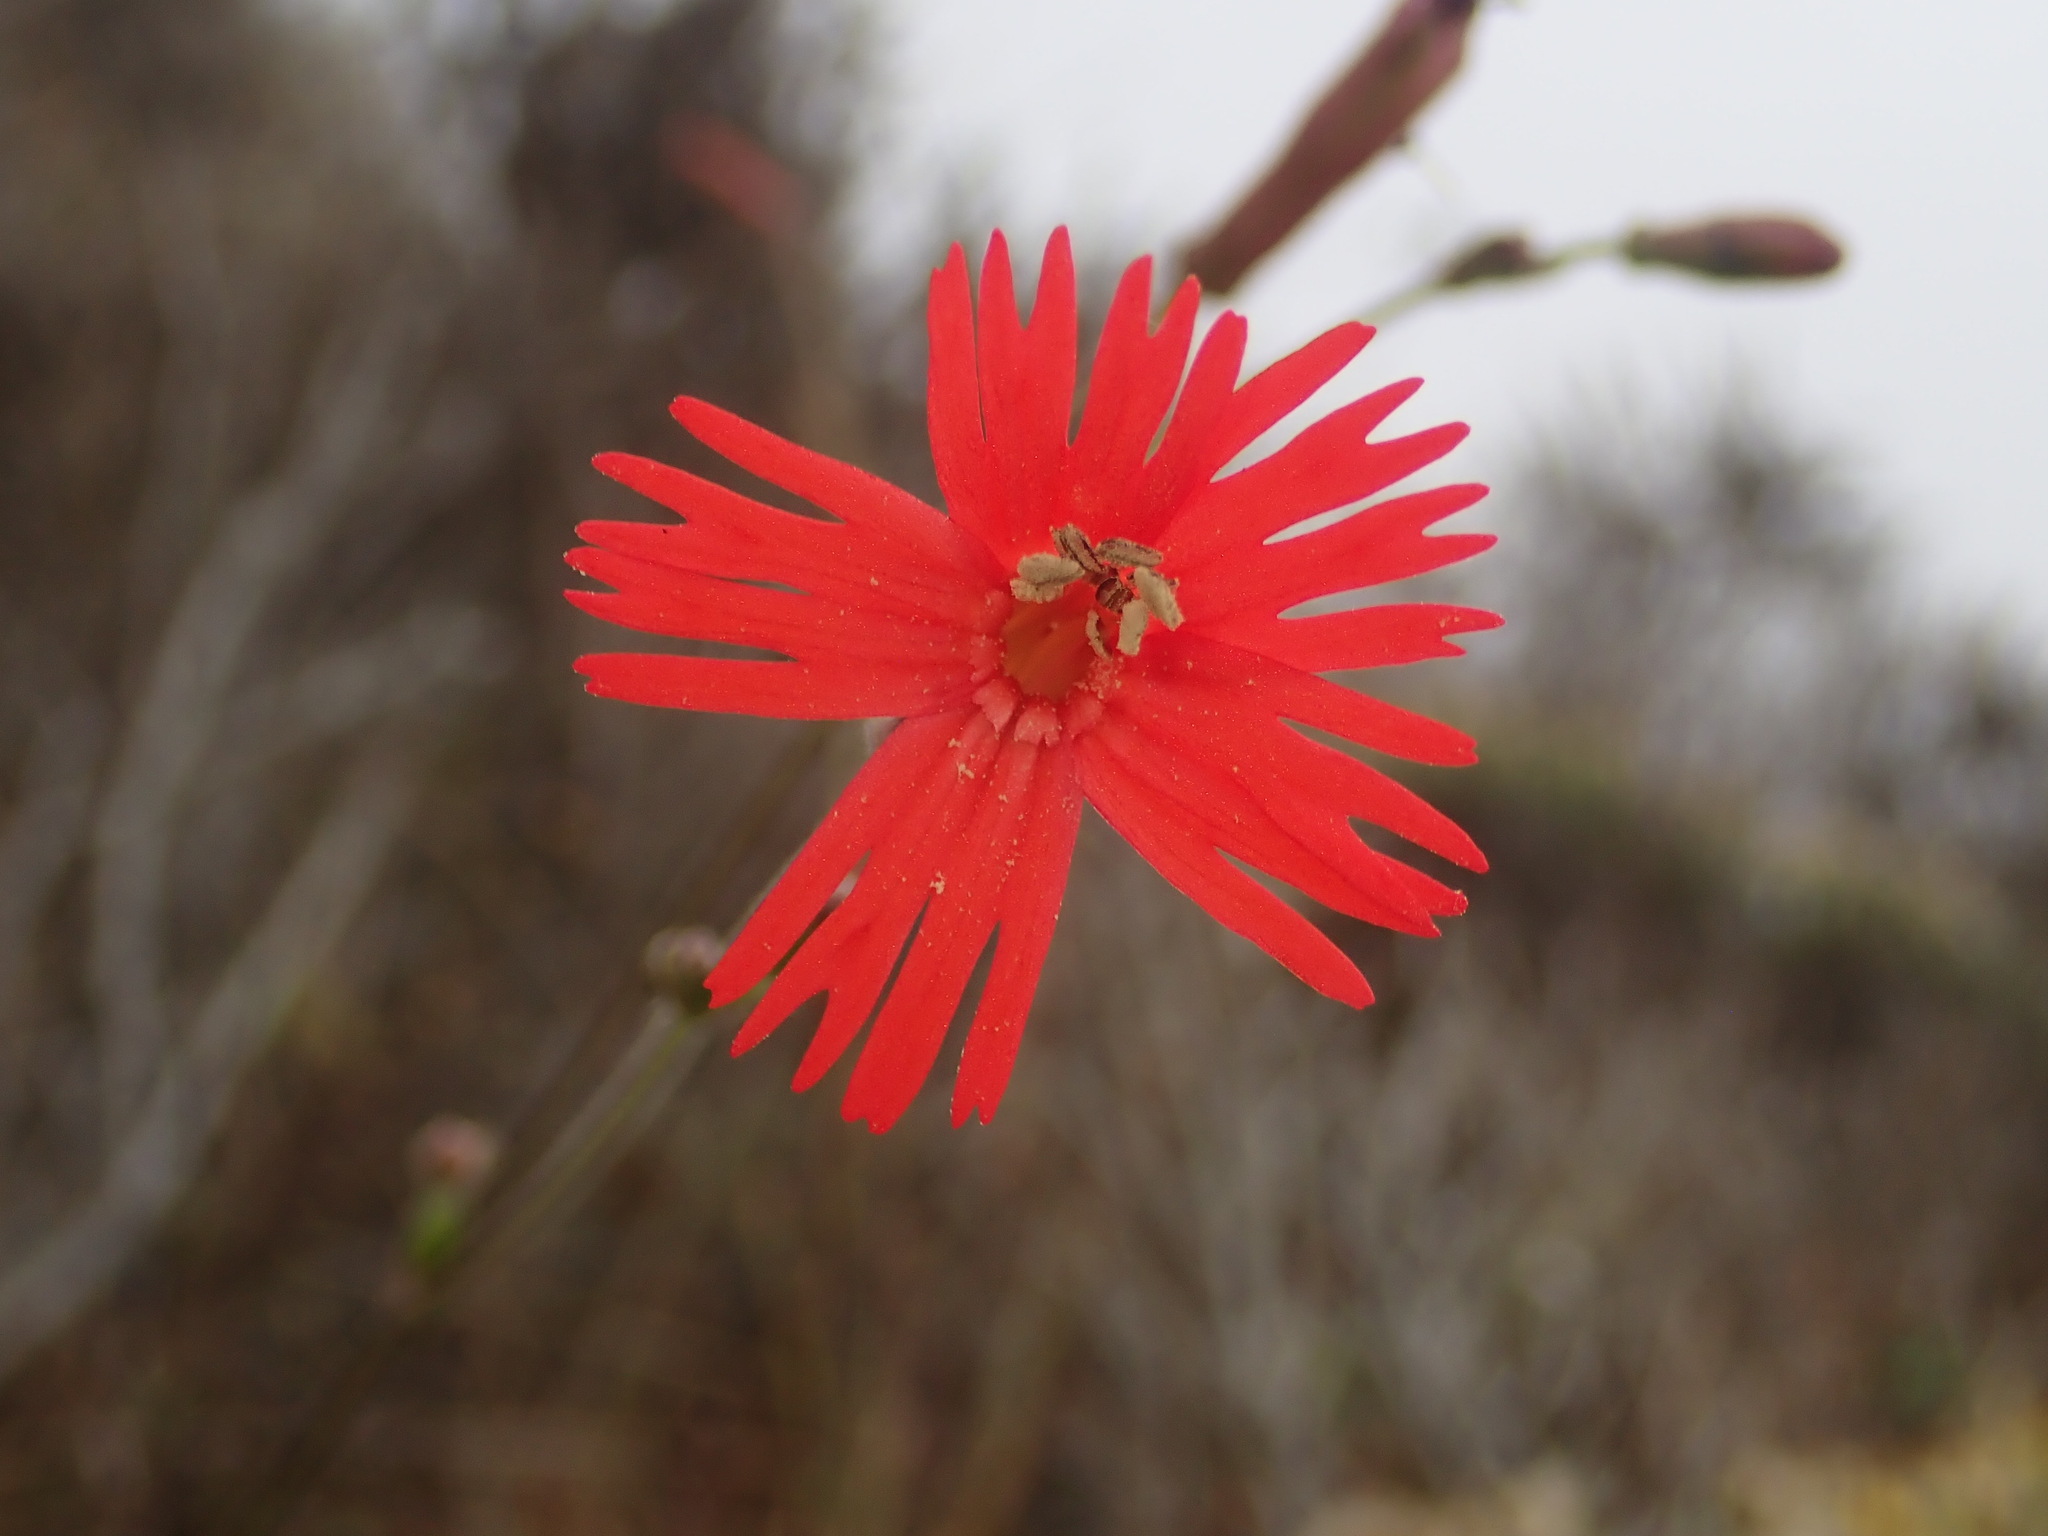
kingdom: Plantae
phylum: Tracheophyta
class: Magnoliopsida
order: Caryophyllales
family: Caryophyllaceae
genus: Silene
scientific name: Silene laciniata
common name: Indian-pink
